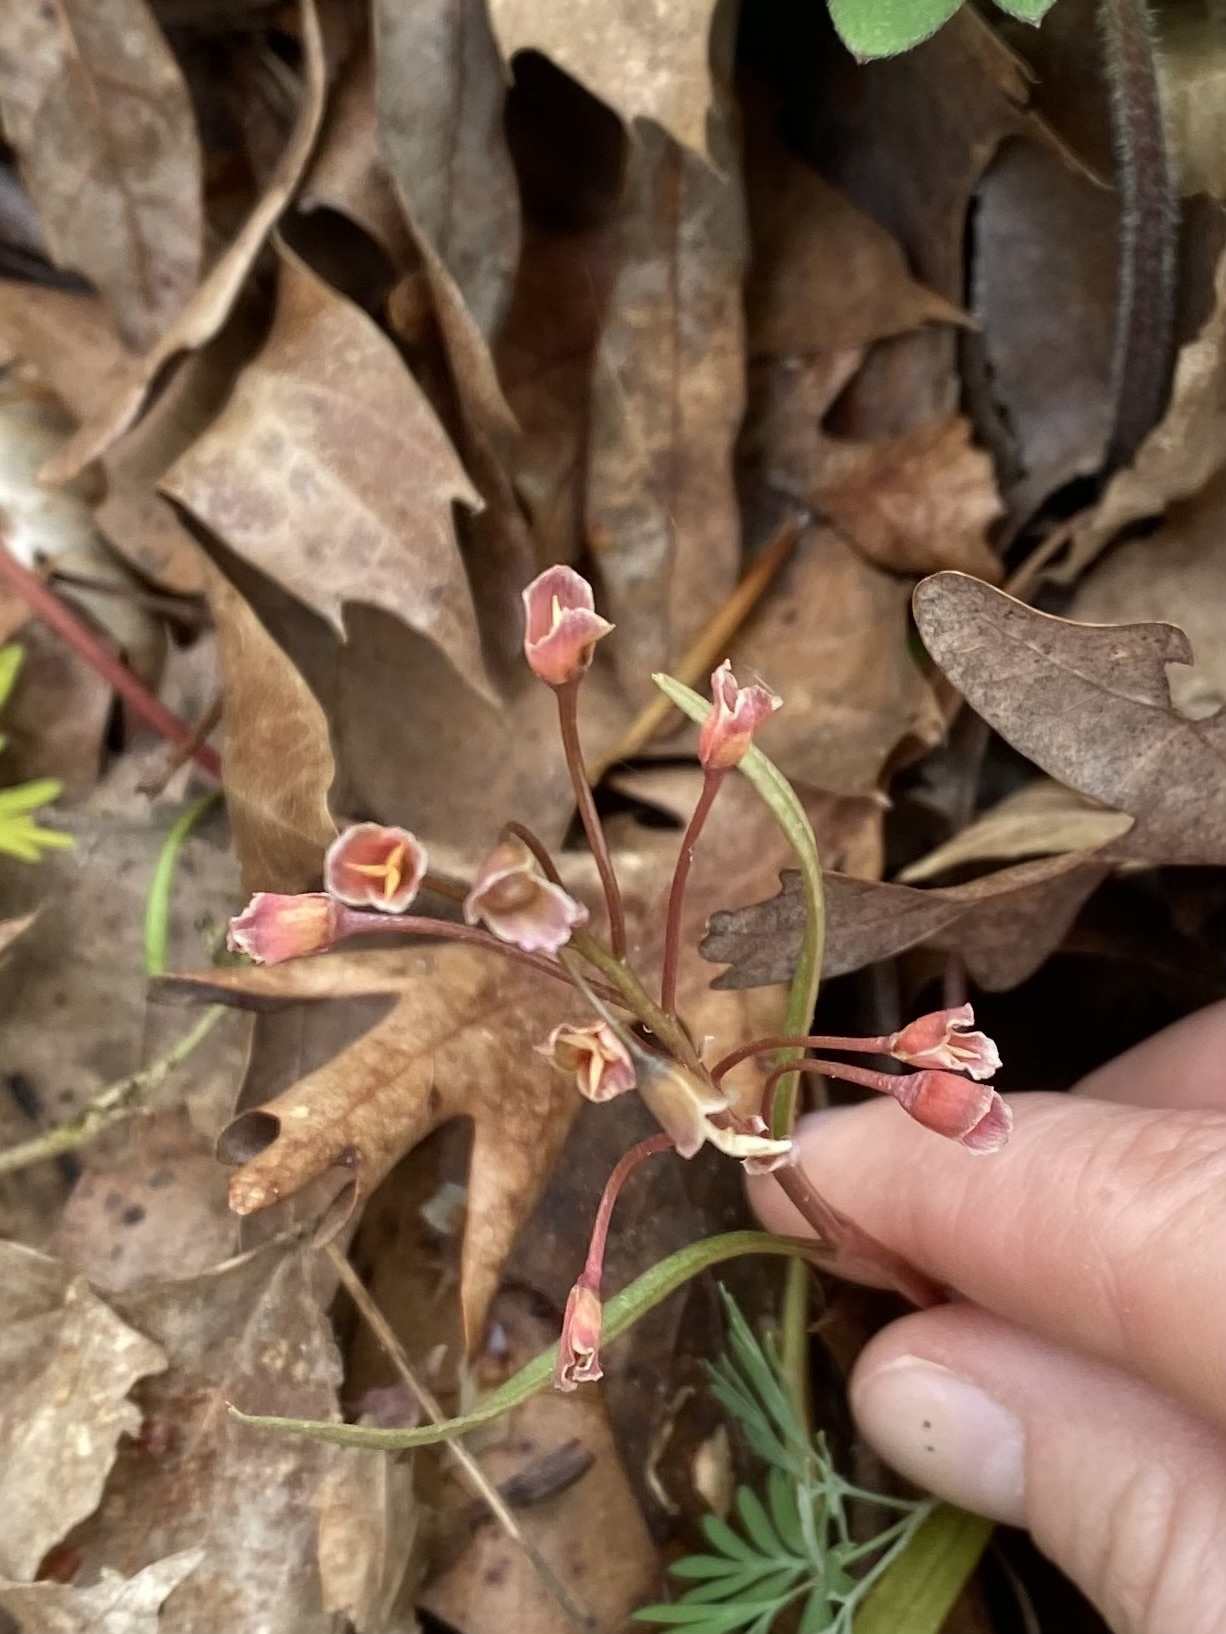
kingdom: Plantae
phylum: Tracheophyta
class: Magnoliopsida
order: Caryophyllales
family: Montiaceae
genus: Claytonia
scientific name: Claytonia virginica
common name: Virginia springbeauty
